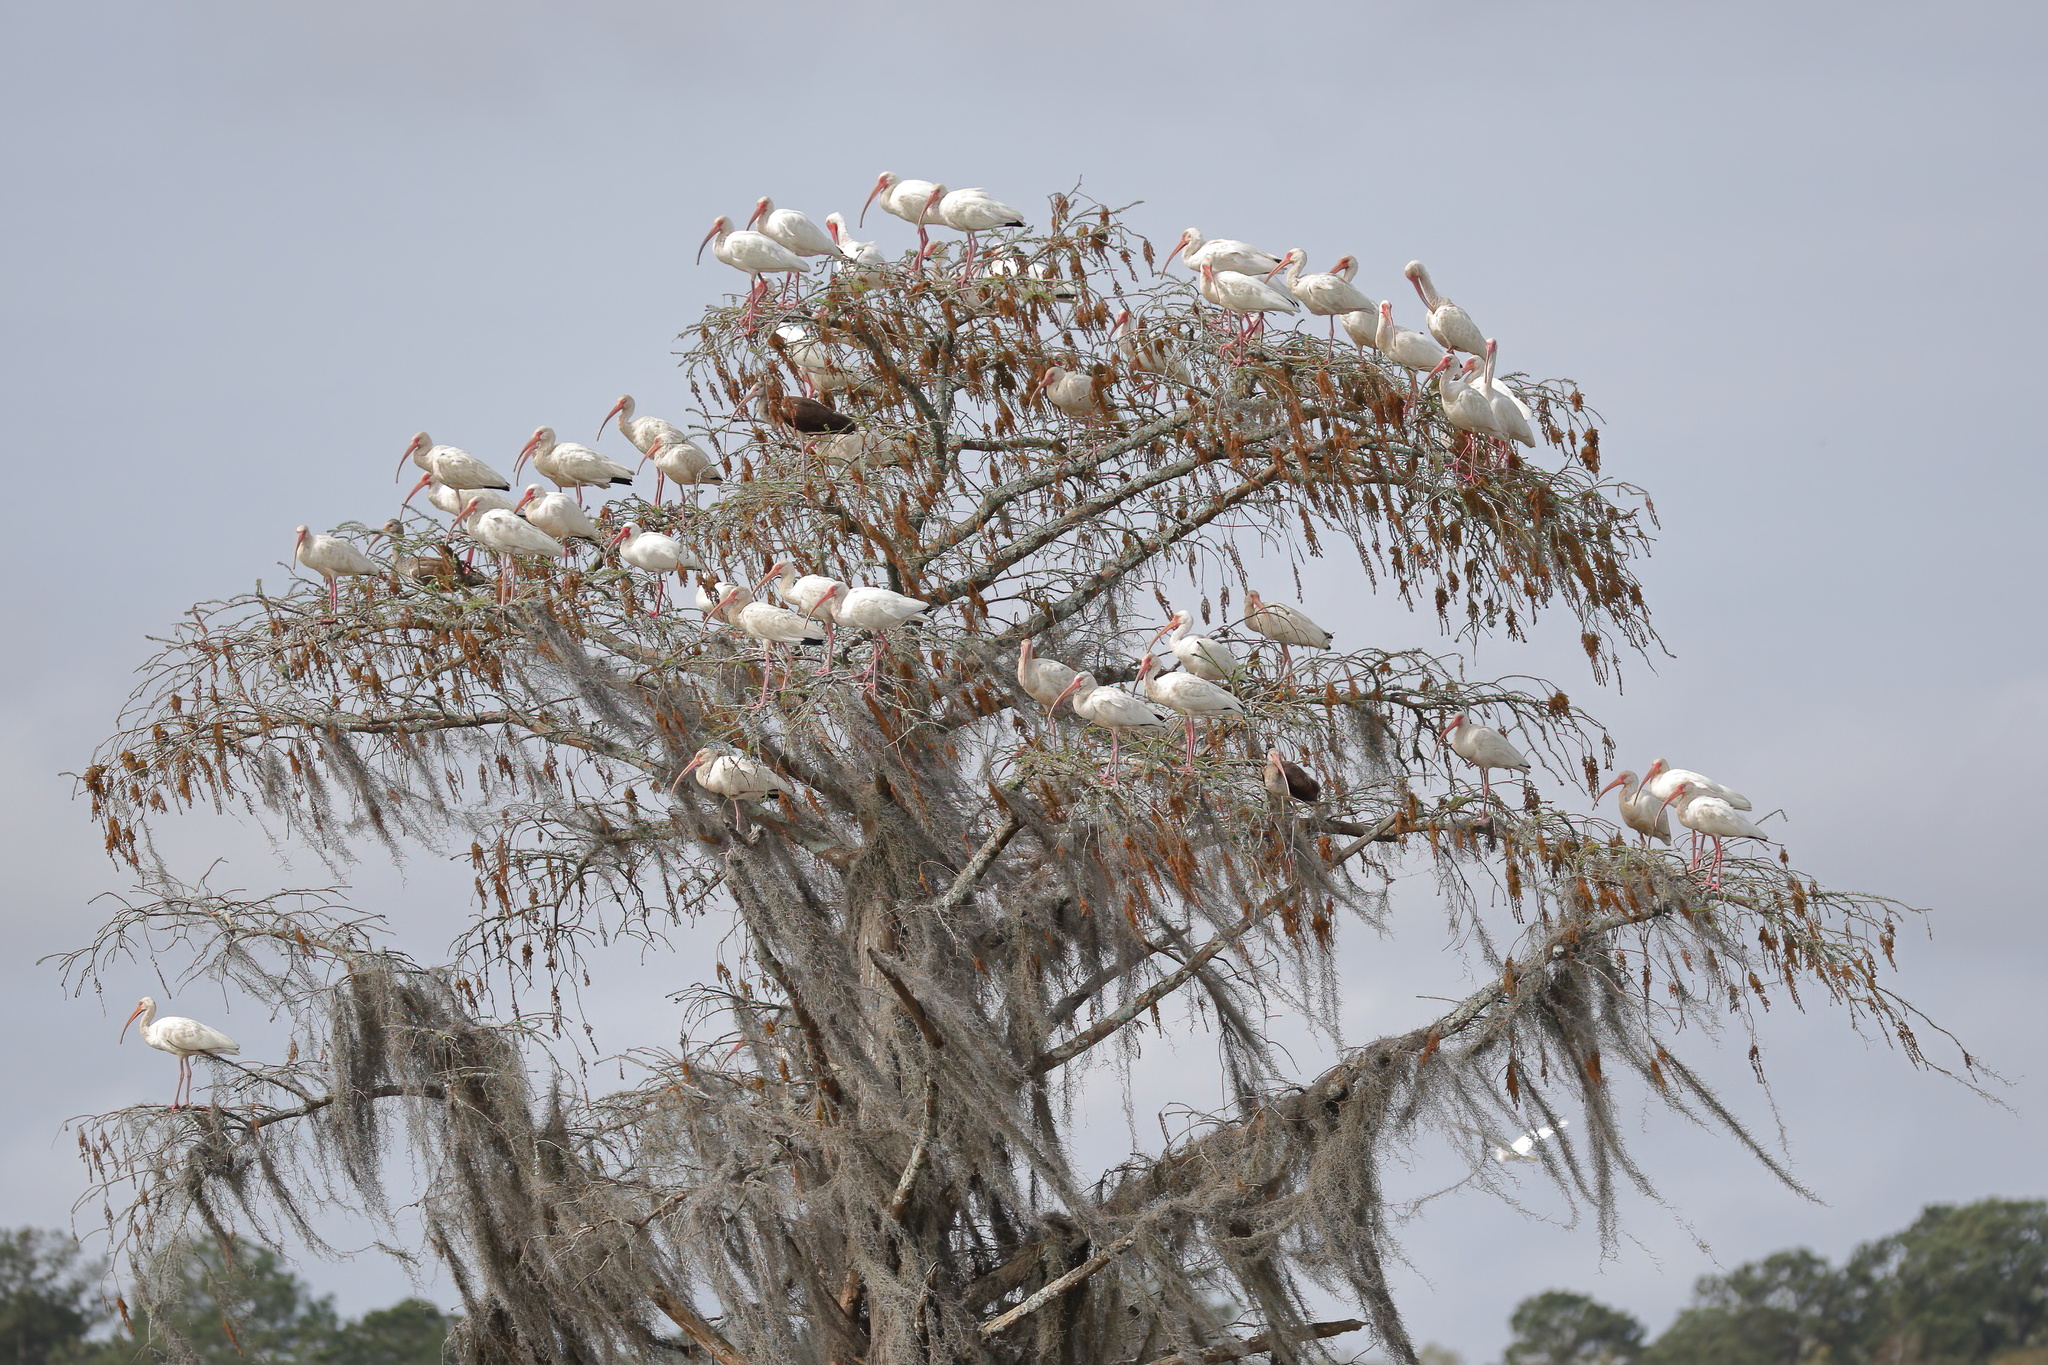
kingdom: Animalia
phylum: Chordata
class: Aves
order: Pelecaniformes
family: Threskiornithidae
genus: Eudocimus
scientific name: Eudocimus albus
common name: White ibis
